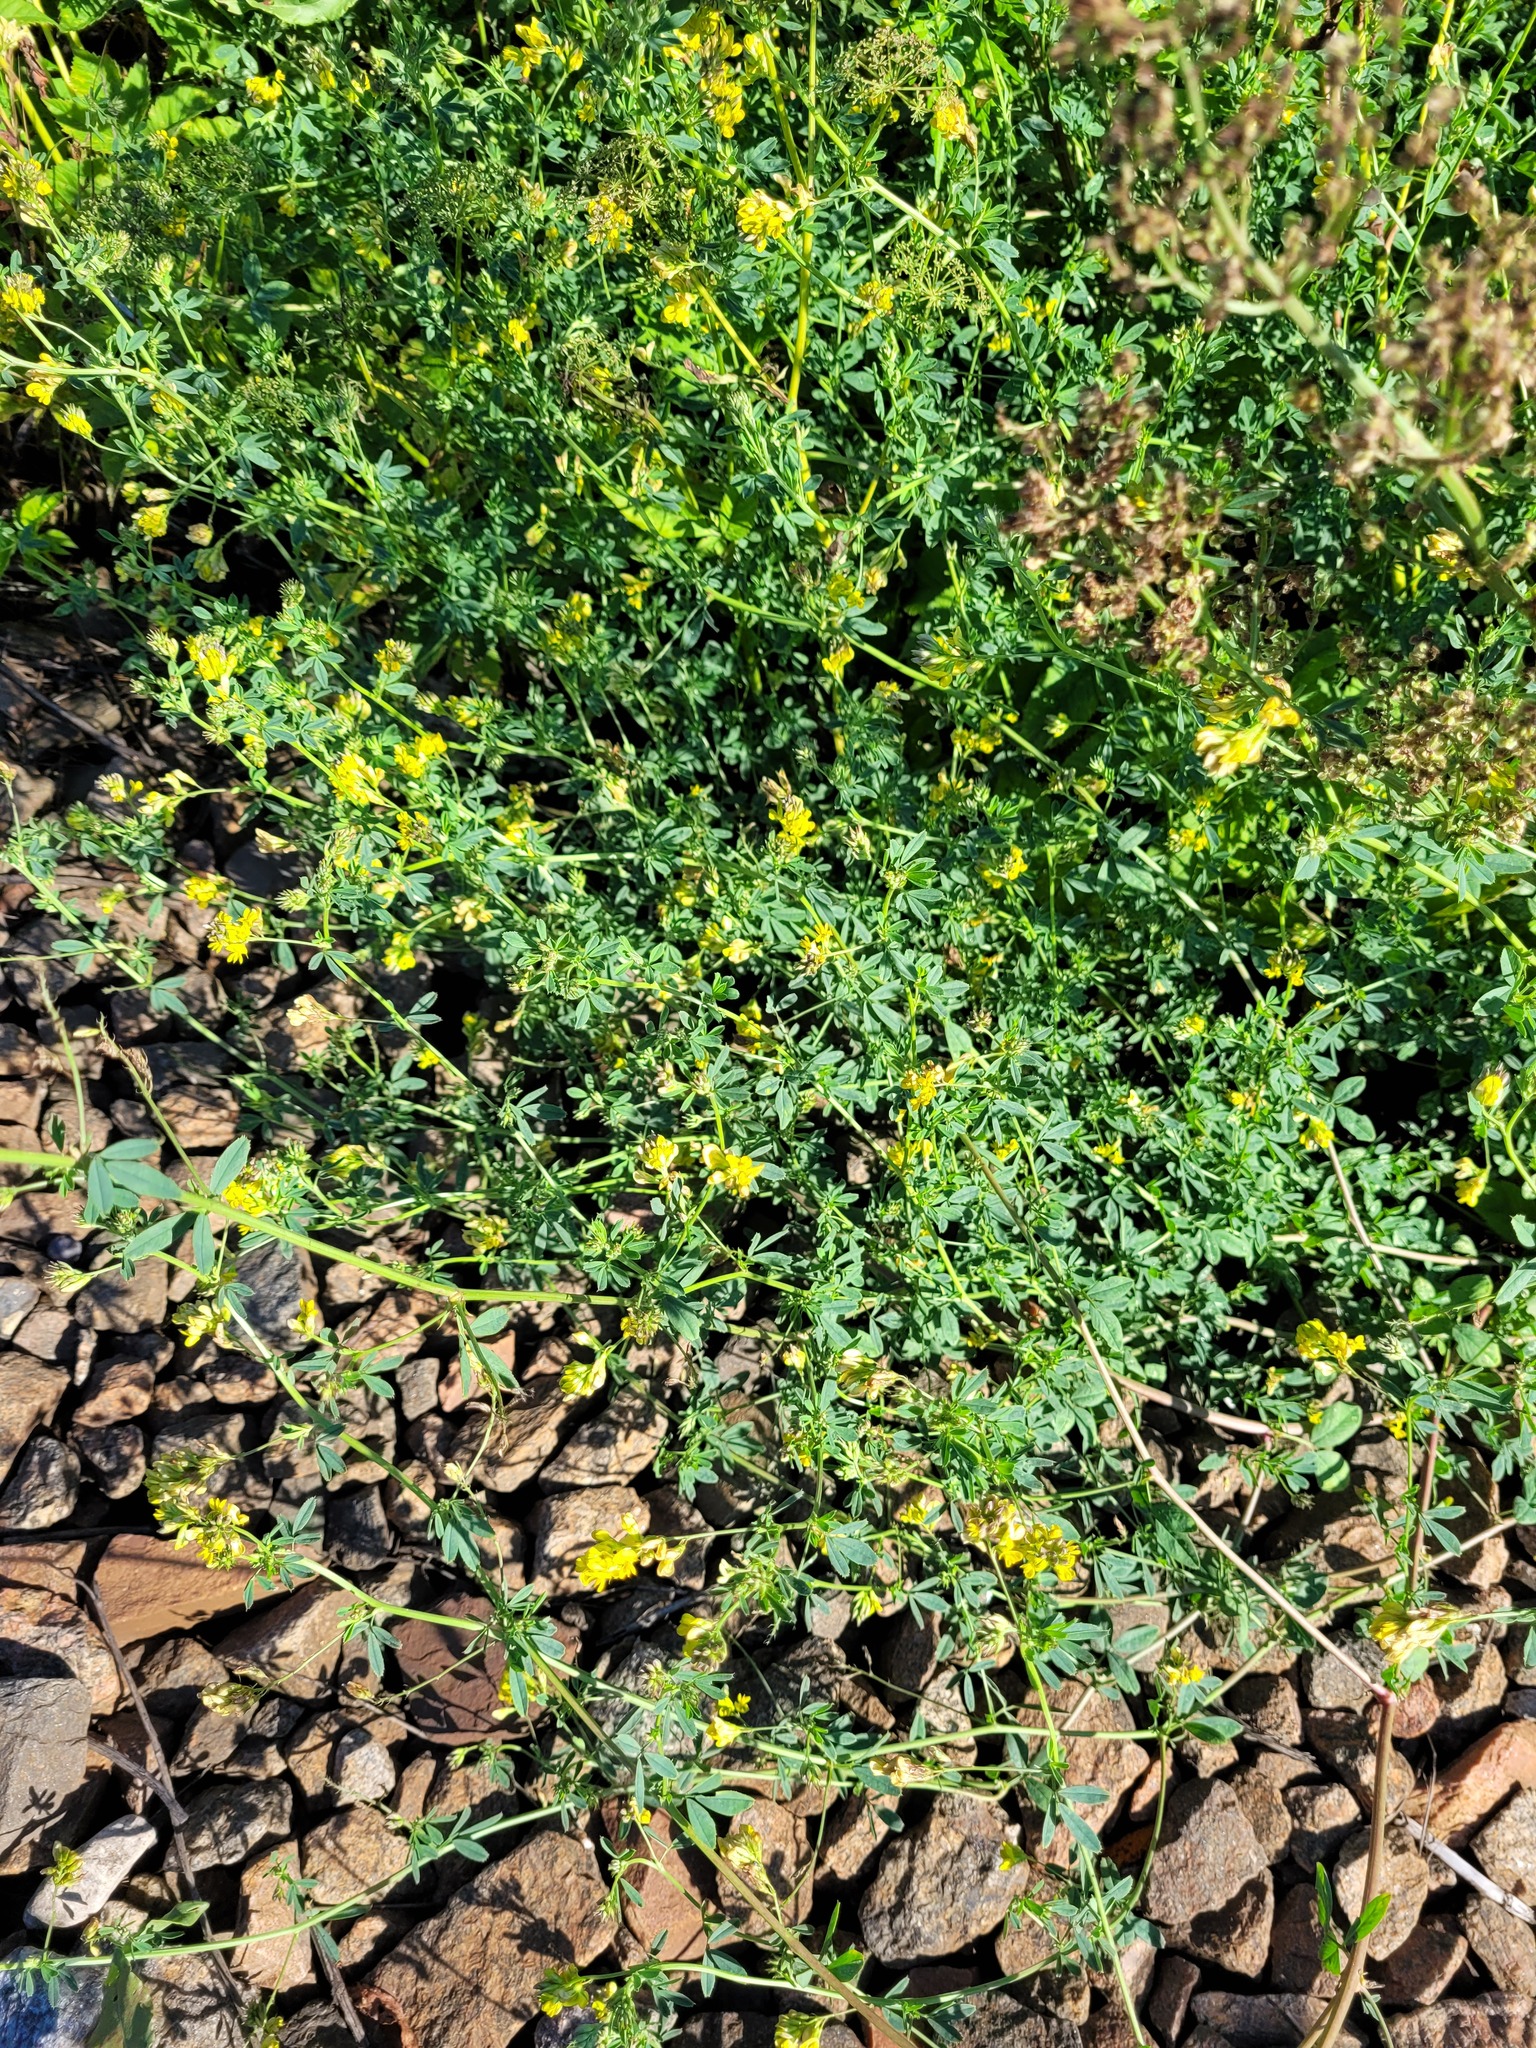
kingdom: Plantae
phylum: Tracheophyta
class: Magnoliopsida
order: Fabales
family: Fabaceae
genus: Medicago
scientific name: Medicago varia
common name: Sand lucerne
